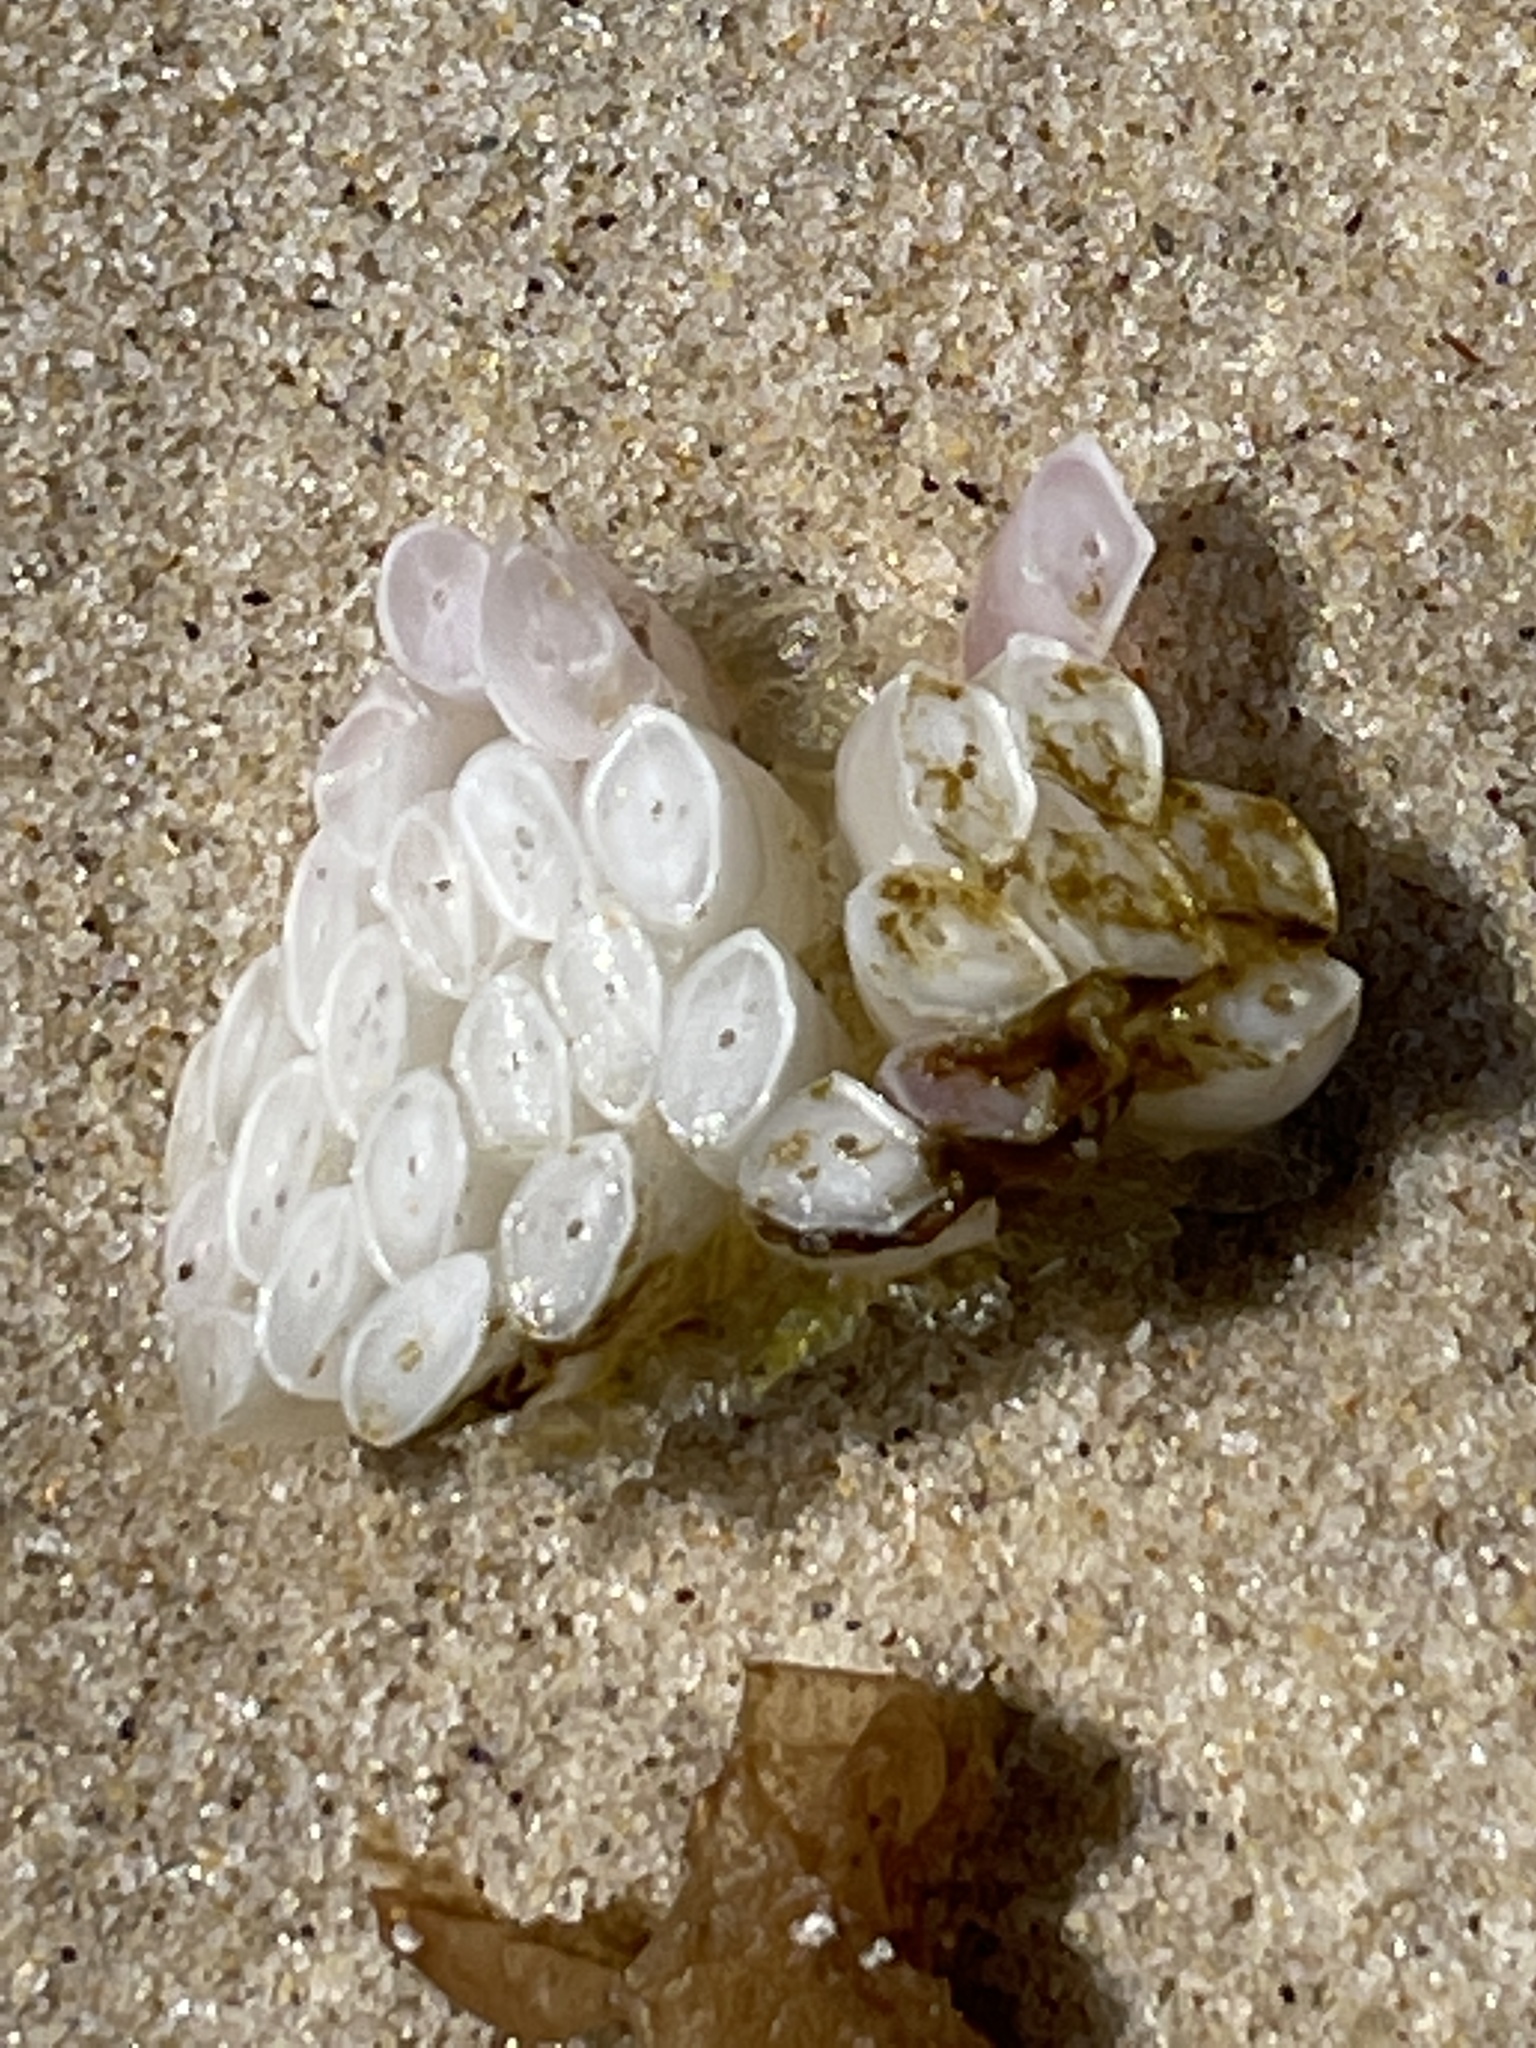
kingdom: Animalia
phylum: Mollusca
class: Gastropoda
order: Neogastropoda
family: Muricidae
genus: Dicathais
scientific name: Dicathais orbita
